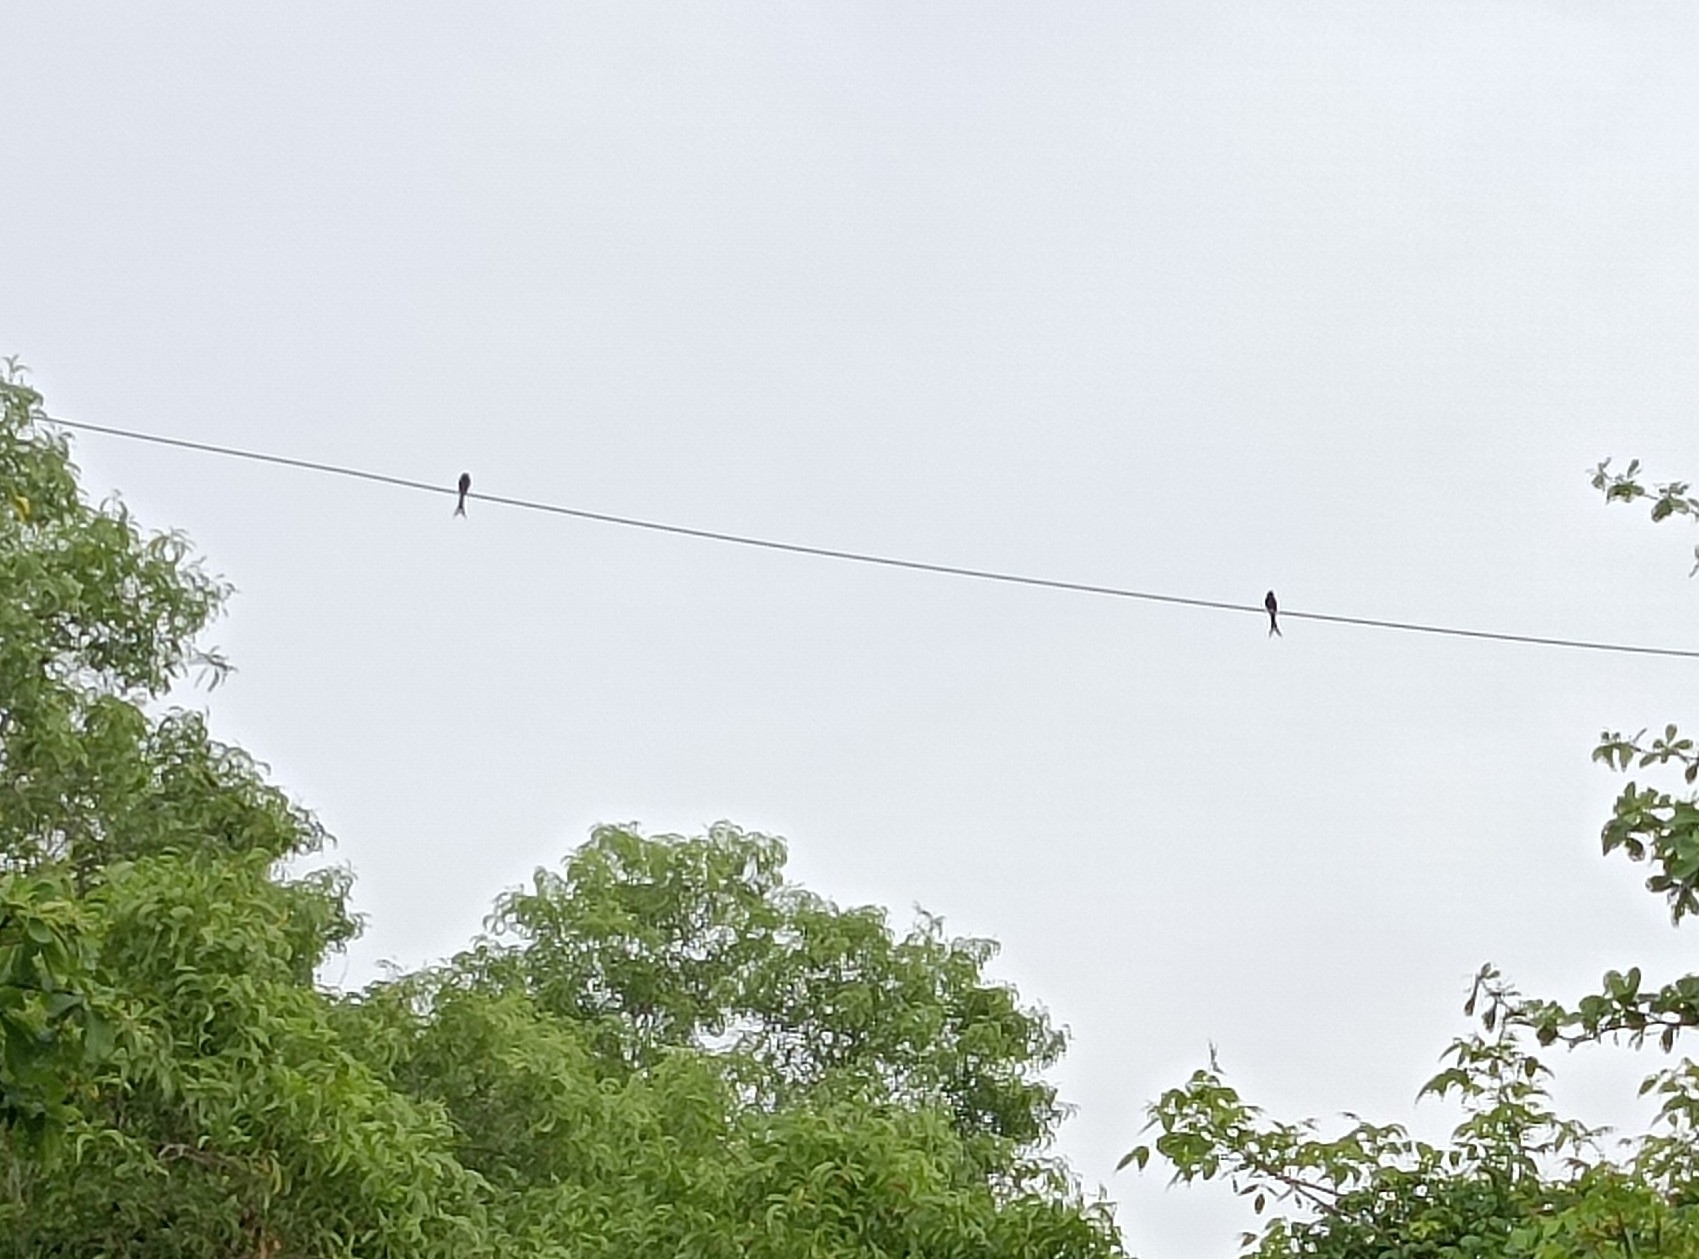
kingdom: Animalia
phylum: Chordata
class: Aves
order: Passeriformes
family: Dicruridae
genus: Dicrurus
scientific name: Dicrurus macrocercus
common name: Black drongo
